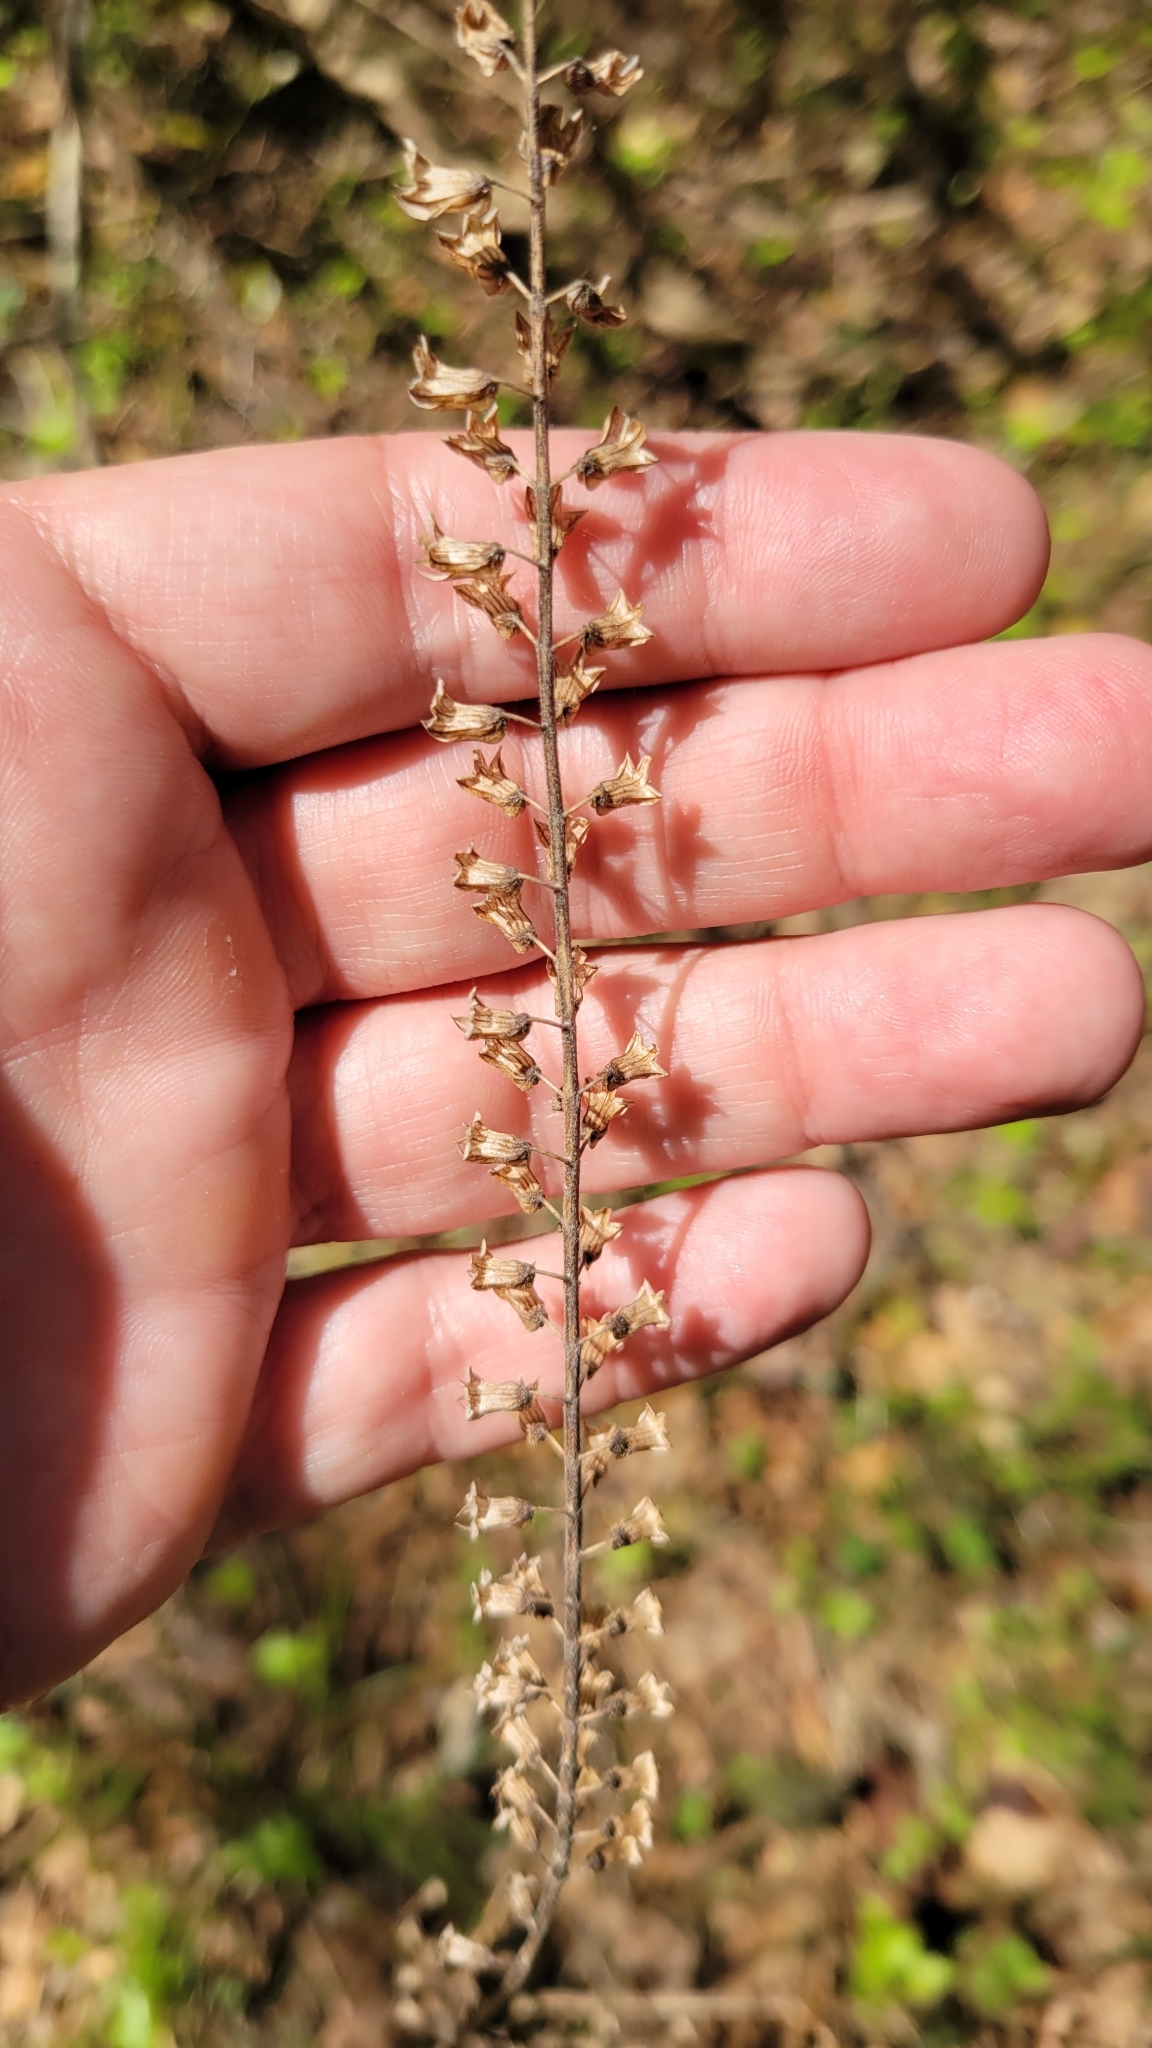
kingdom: Plantae
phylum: Tracheophyta
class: Magnoliopsida
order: Lamiales
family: Lamiaceae
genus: Perilla
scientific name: Perilla frutescens
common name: Perilla
